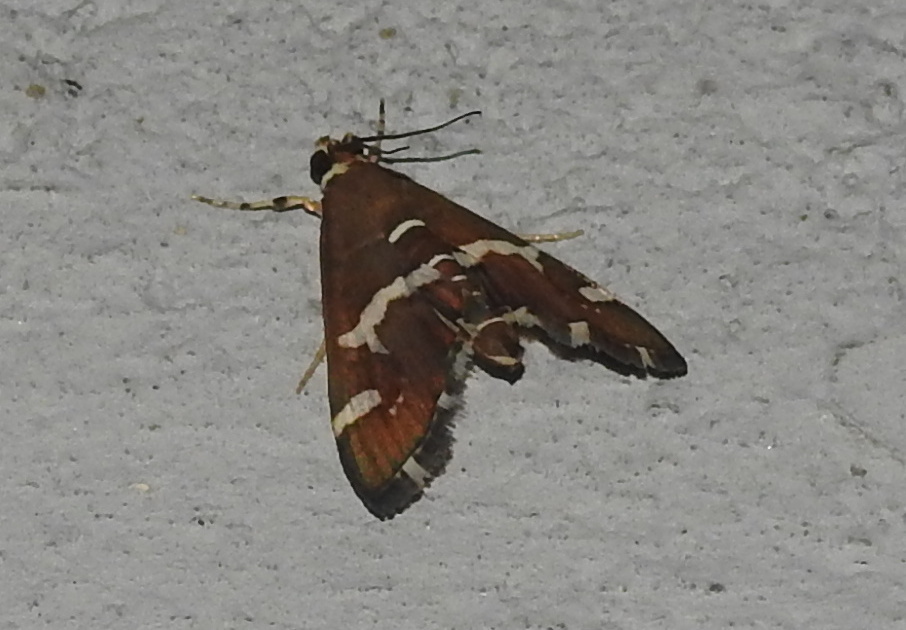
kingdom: Animalia
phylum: Arthropoda
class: Insecta
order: Lepidoptera
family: Crambidae
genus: Spoladea
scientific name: Spoladea recurvalis
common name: Beet webworm moth
